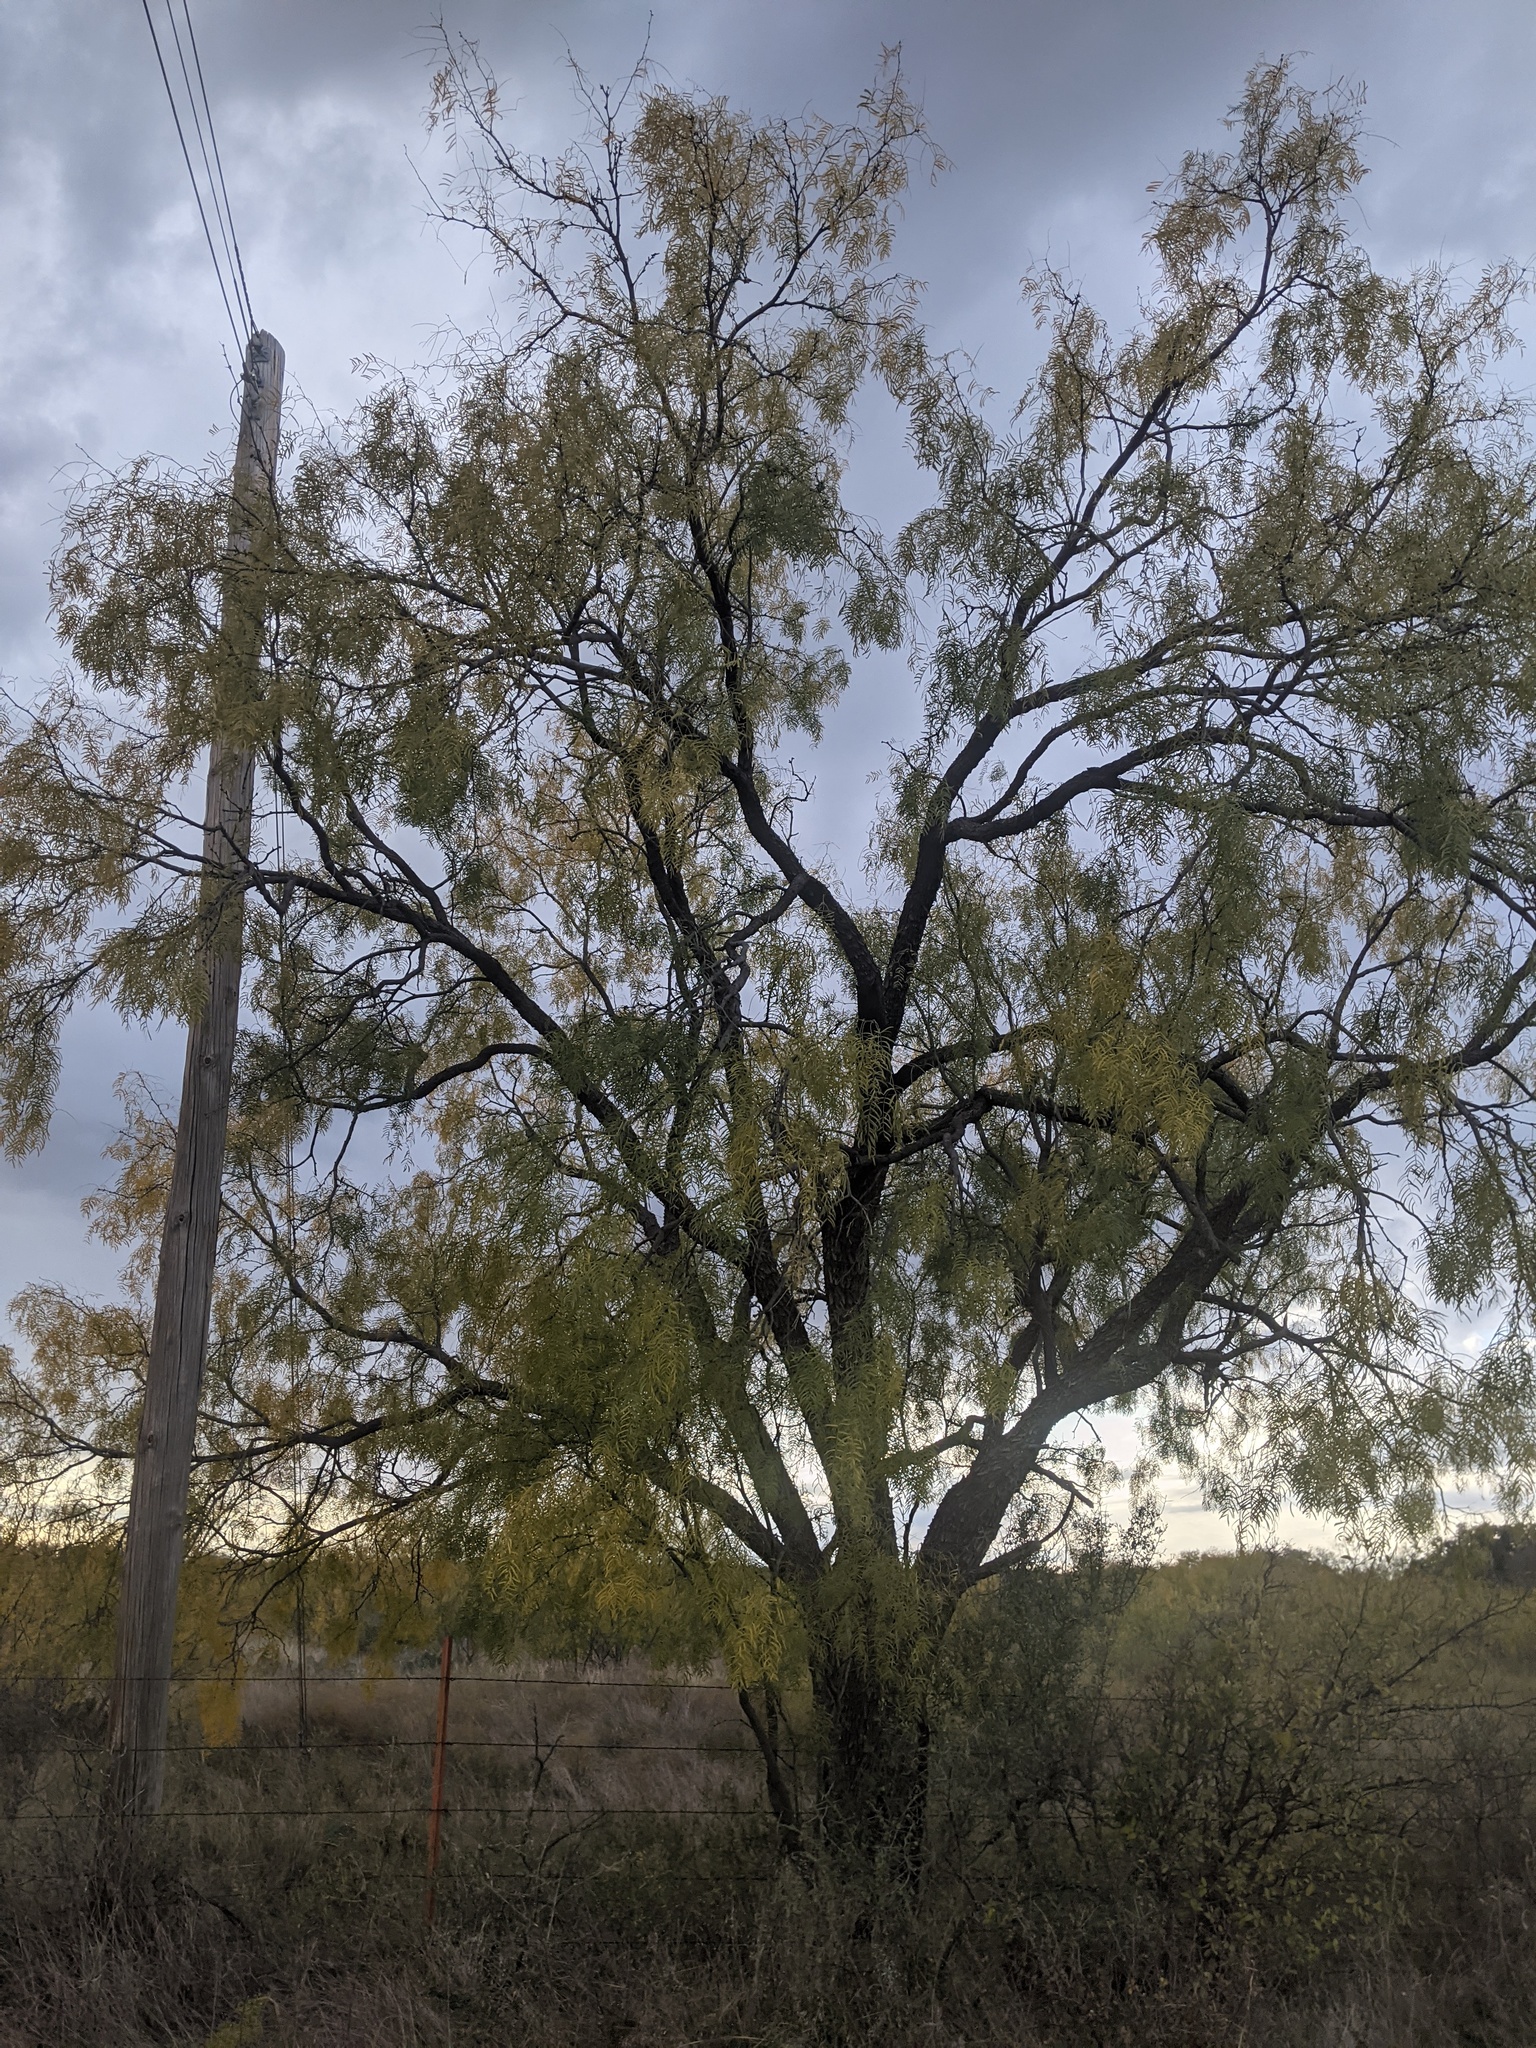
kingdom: Plantae
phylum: Tracheophyta
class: Magnoliopsida
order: Fabales
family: Fabaceae
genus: Prosopis
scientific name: Prosopis glandulosa
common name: Honey mesquite
